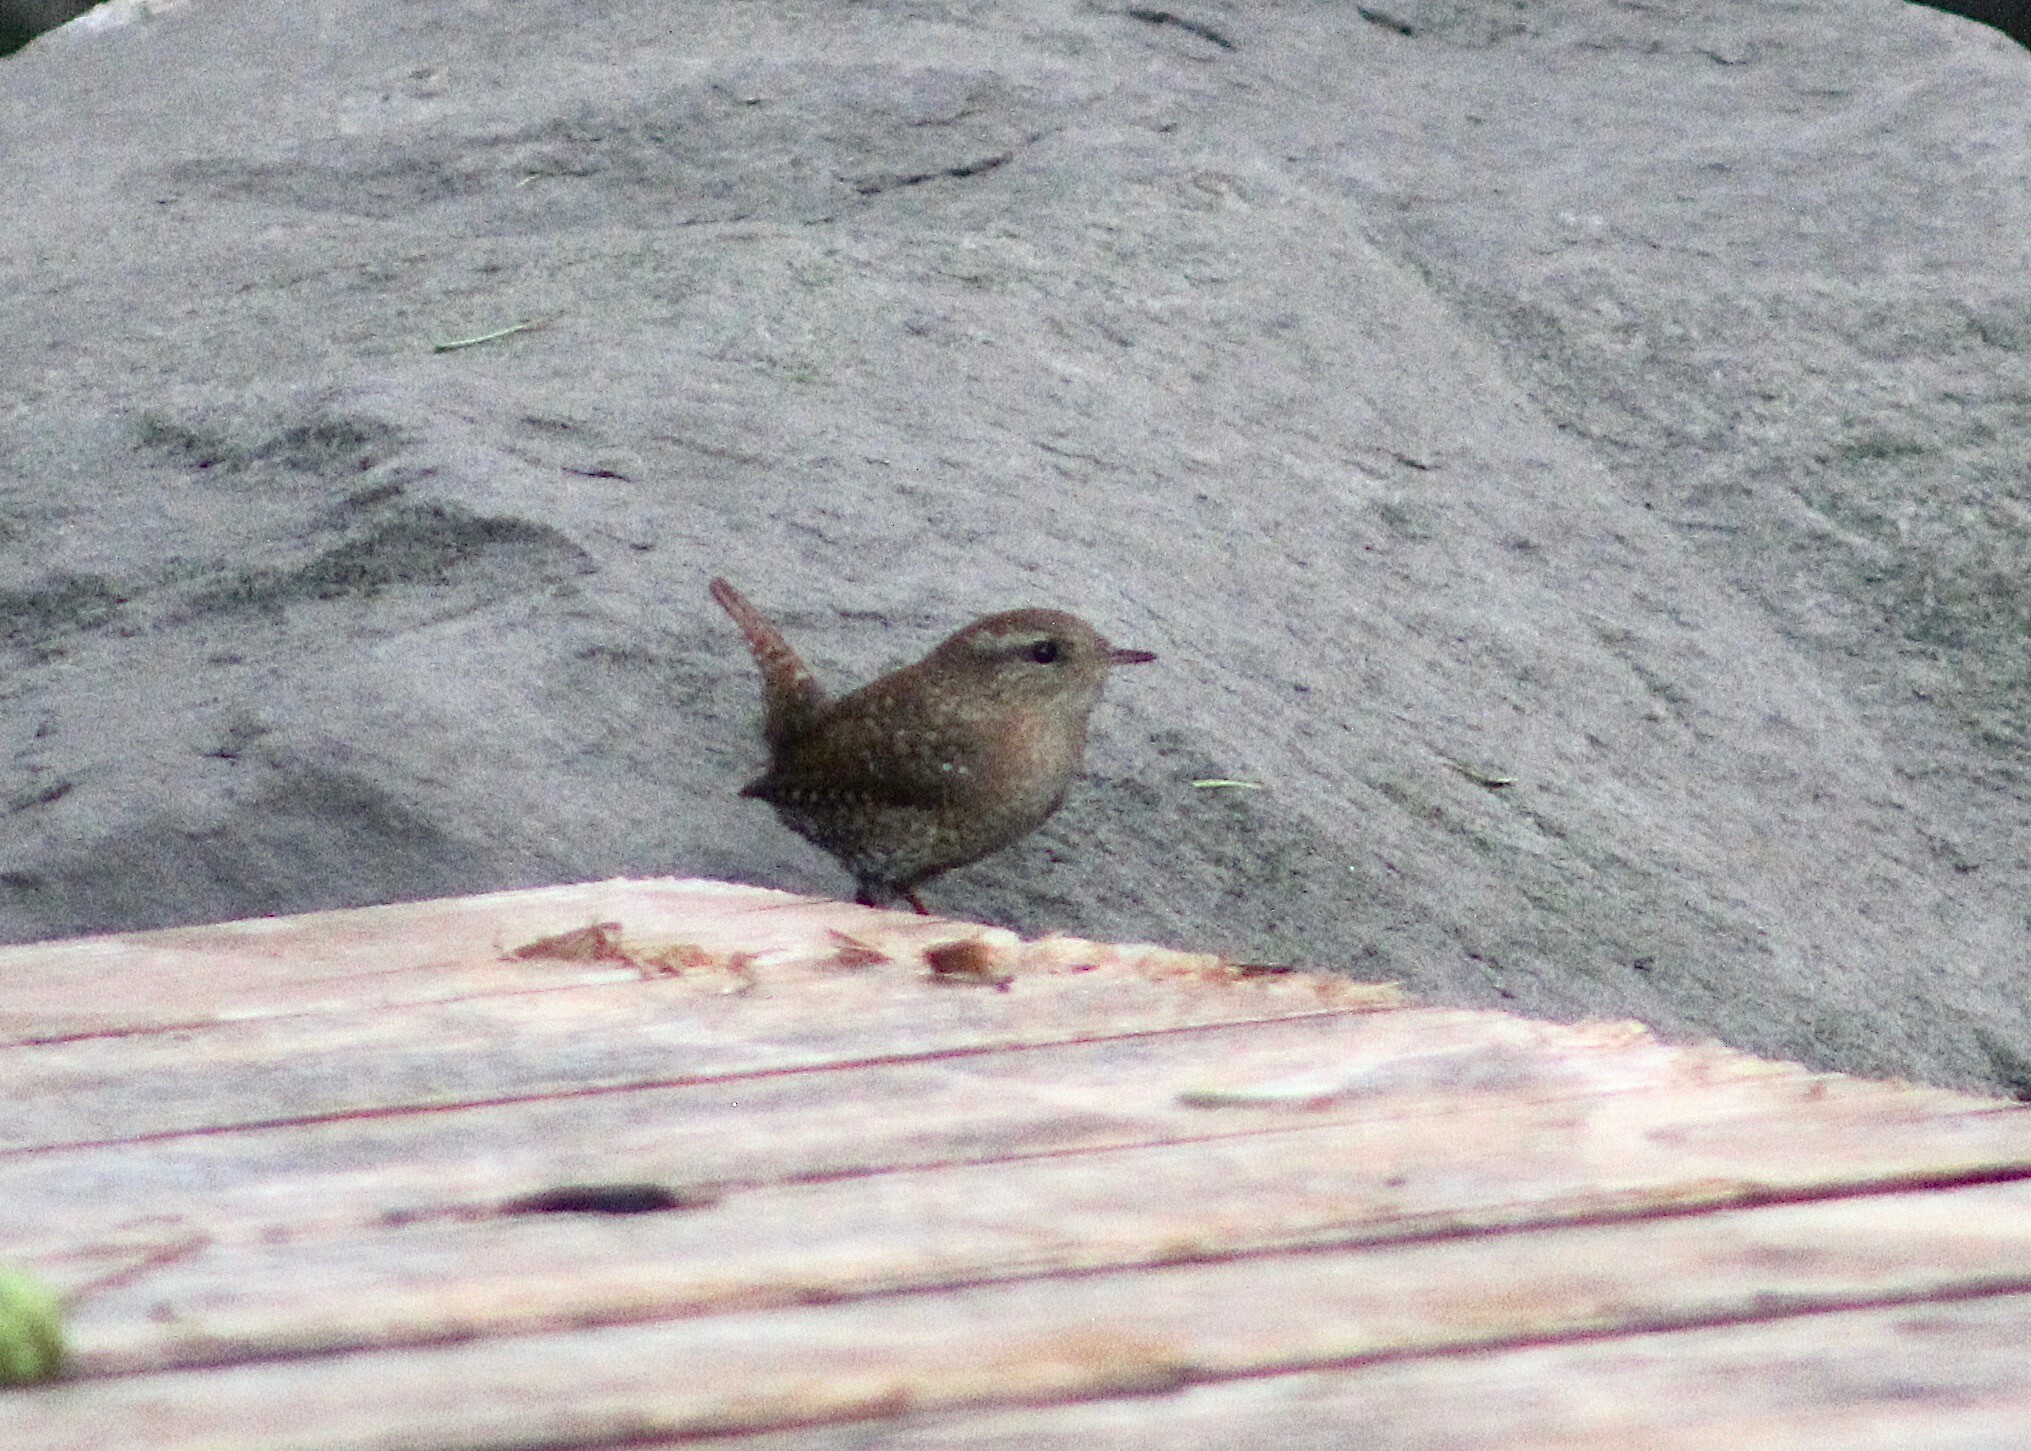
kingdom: Animalia
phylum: Chordata
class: Aves
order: Passeriformes
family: Troglodytidae
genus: Troglodytes
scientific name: Troglodytes hiemalis
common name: Winter wren
